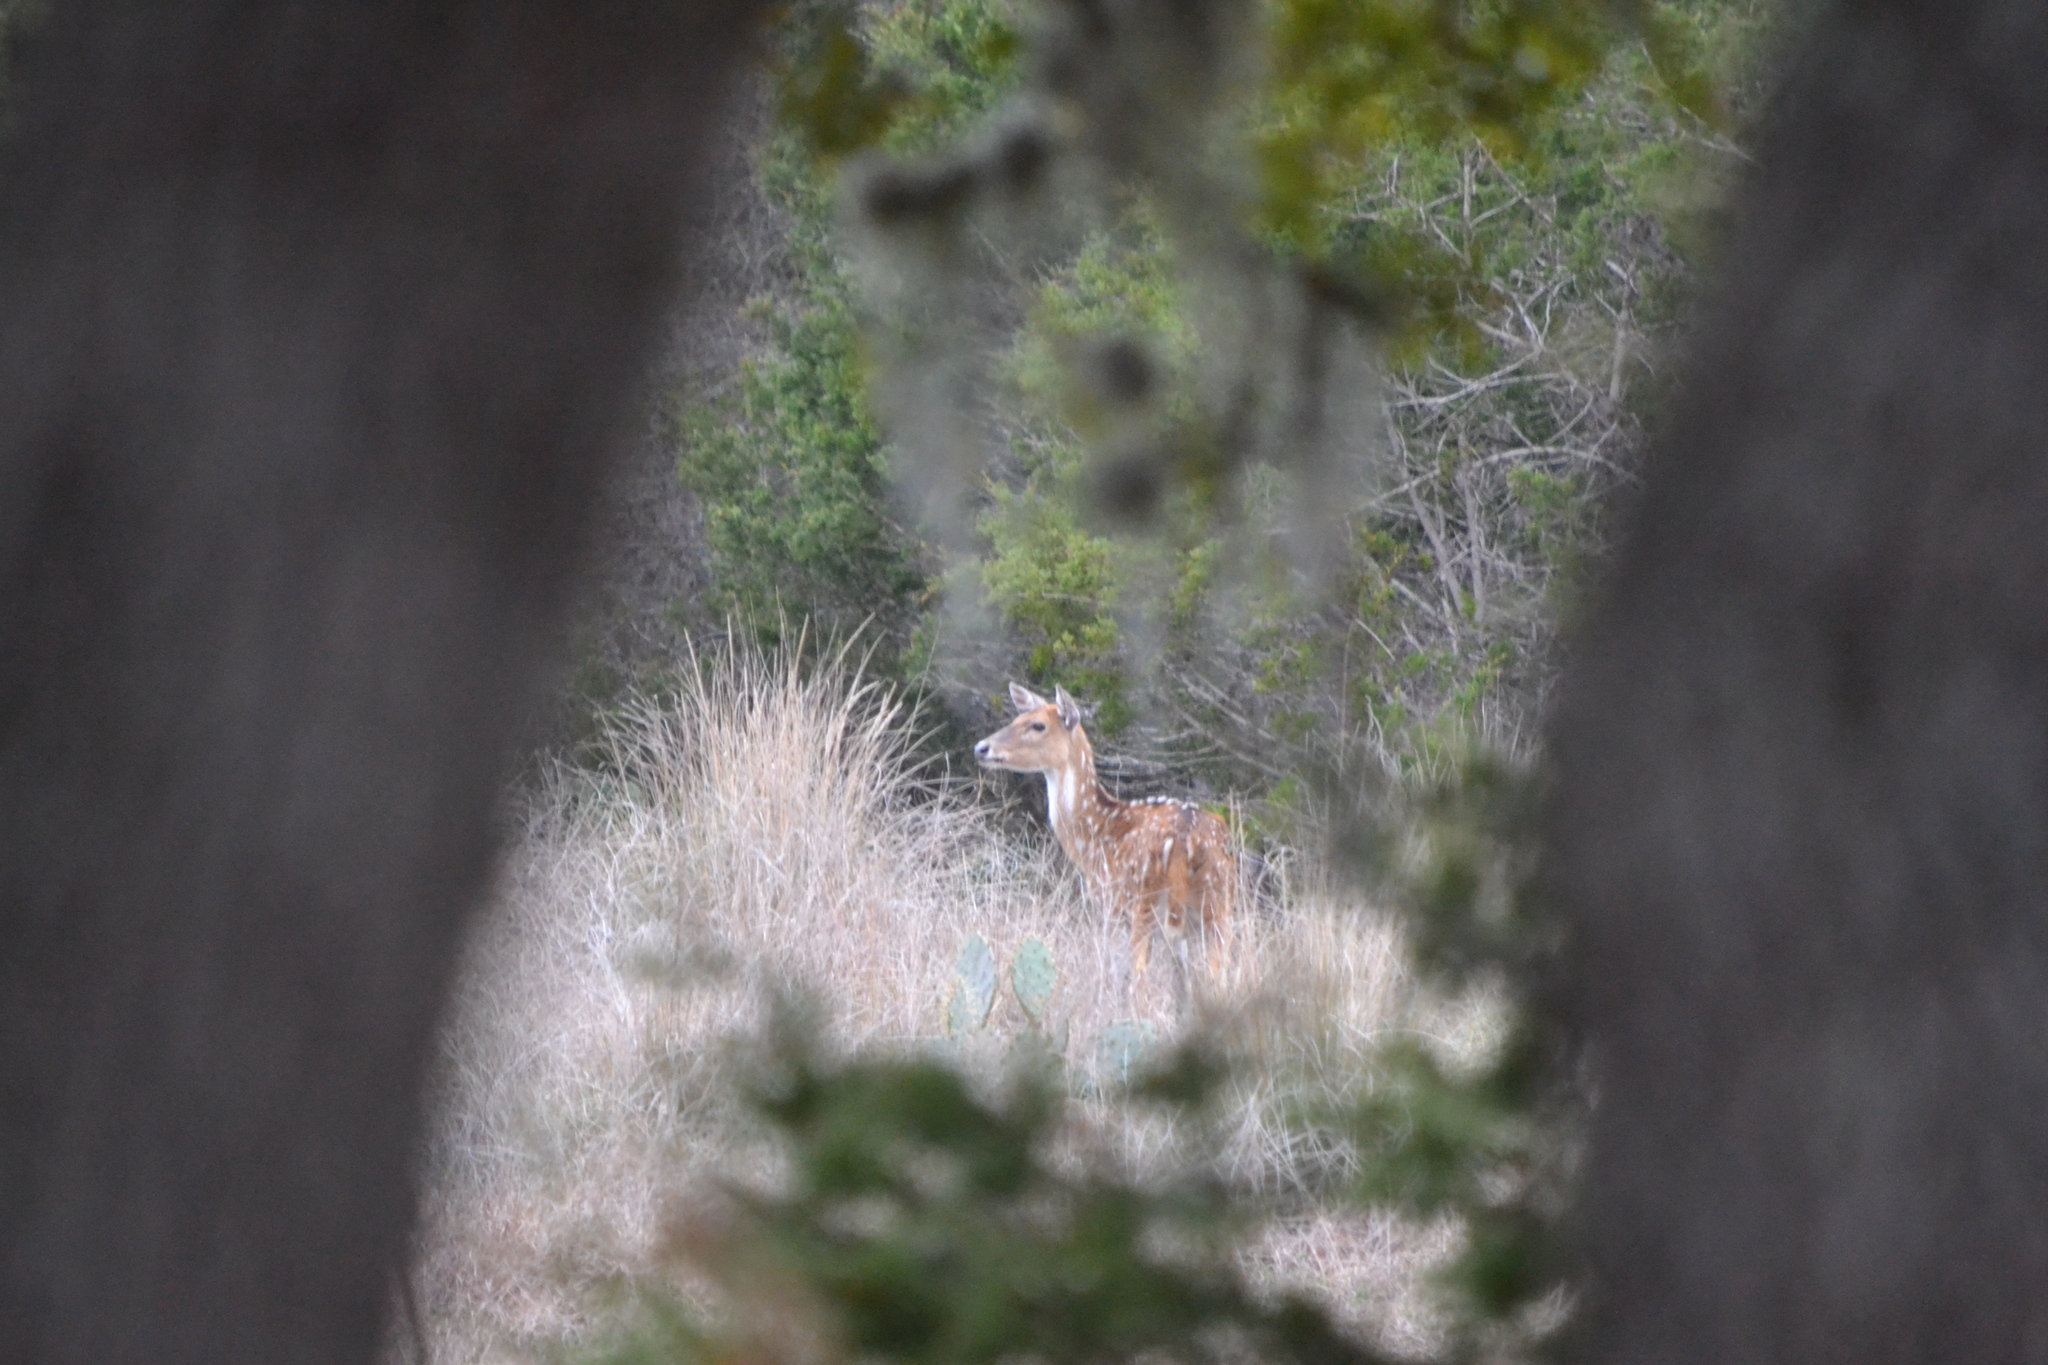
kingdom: Animalia
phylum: Chordata
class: Mammalia
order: Artiodactyla
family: Cervidae
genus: Axis
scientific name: Axis axis
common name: Chital
